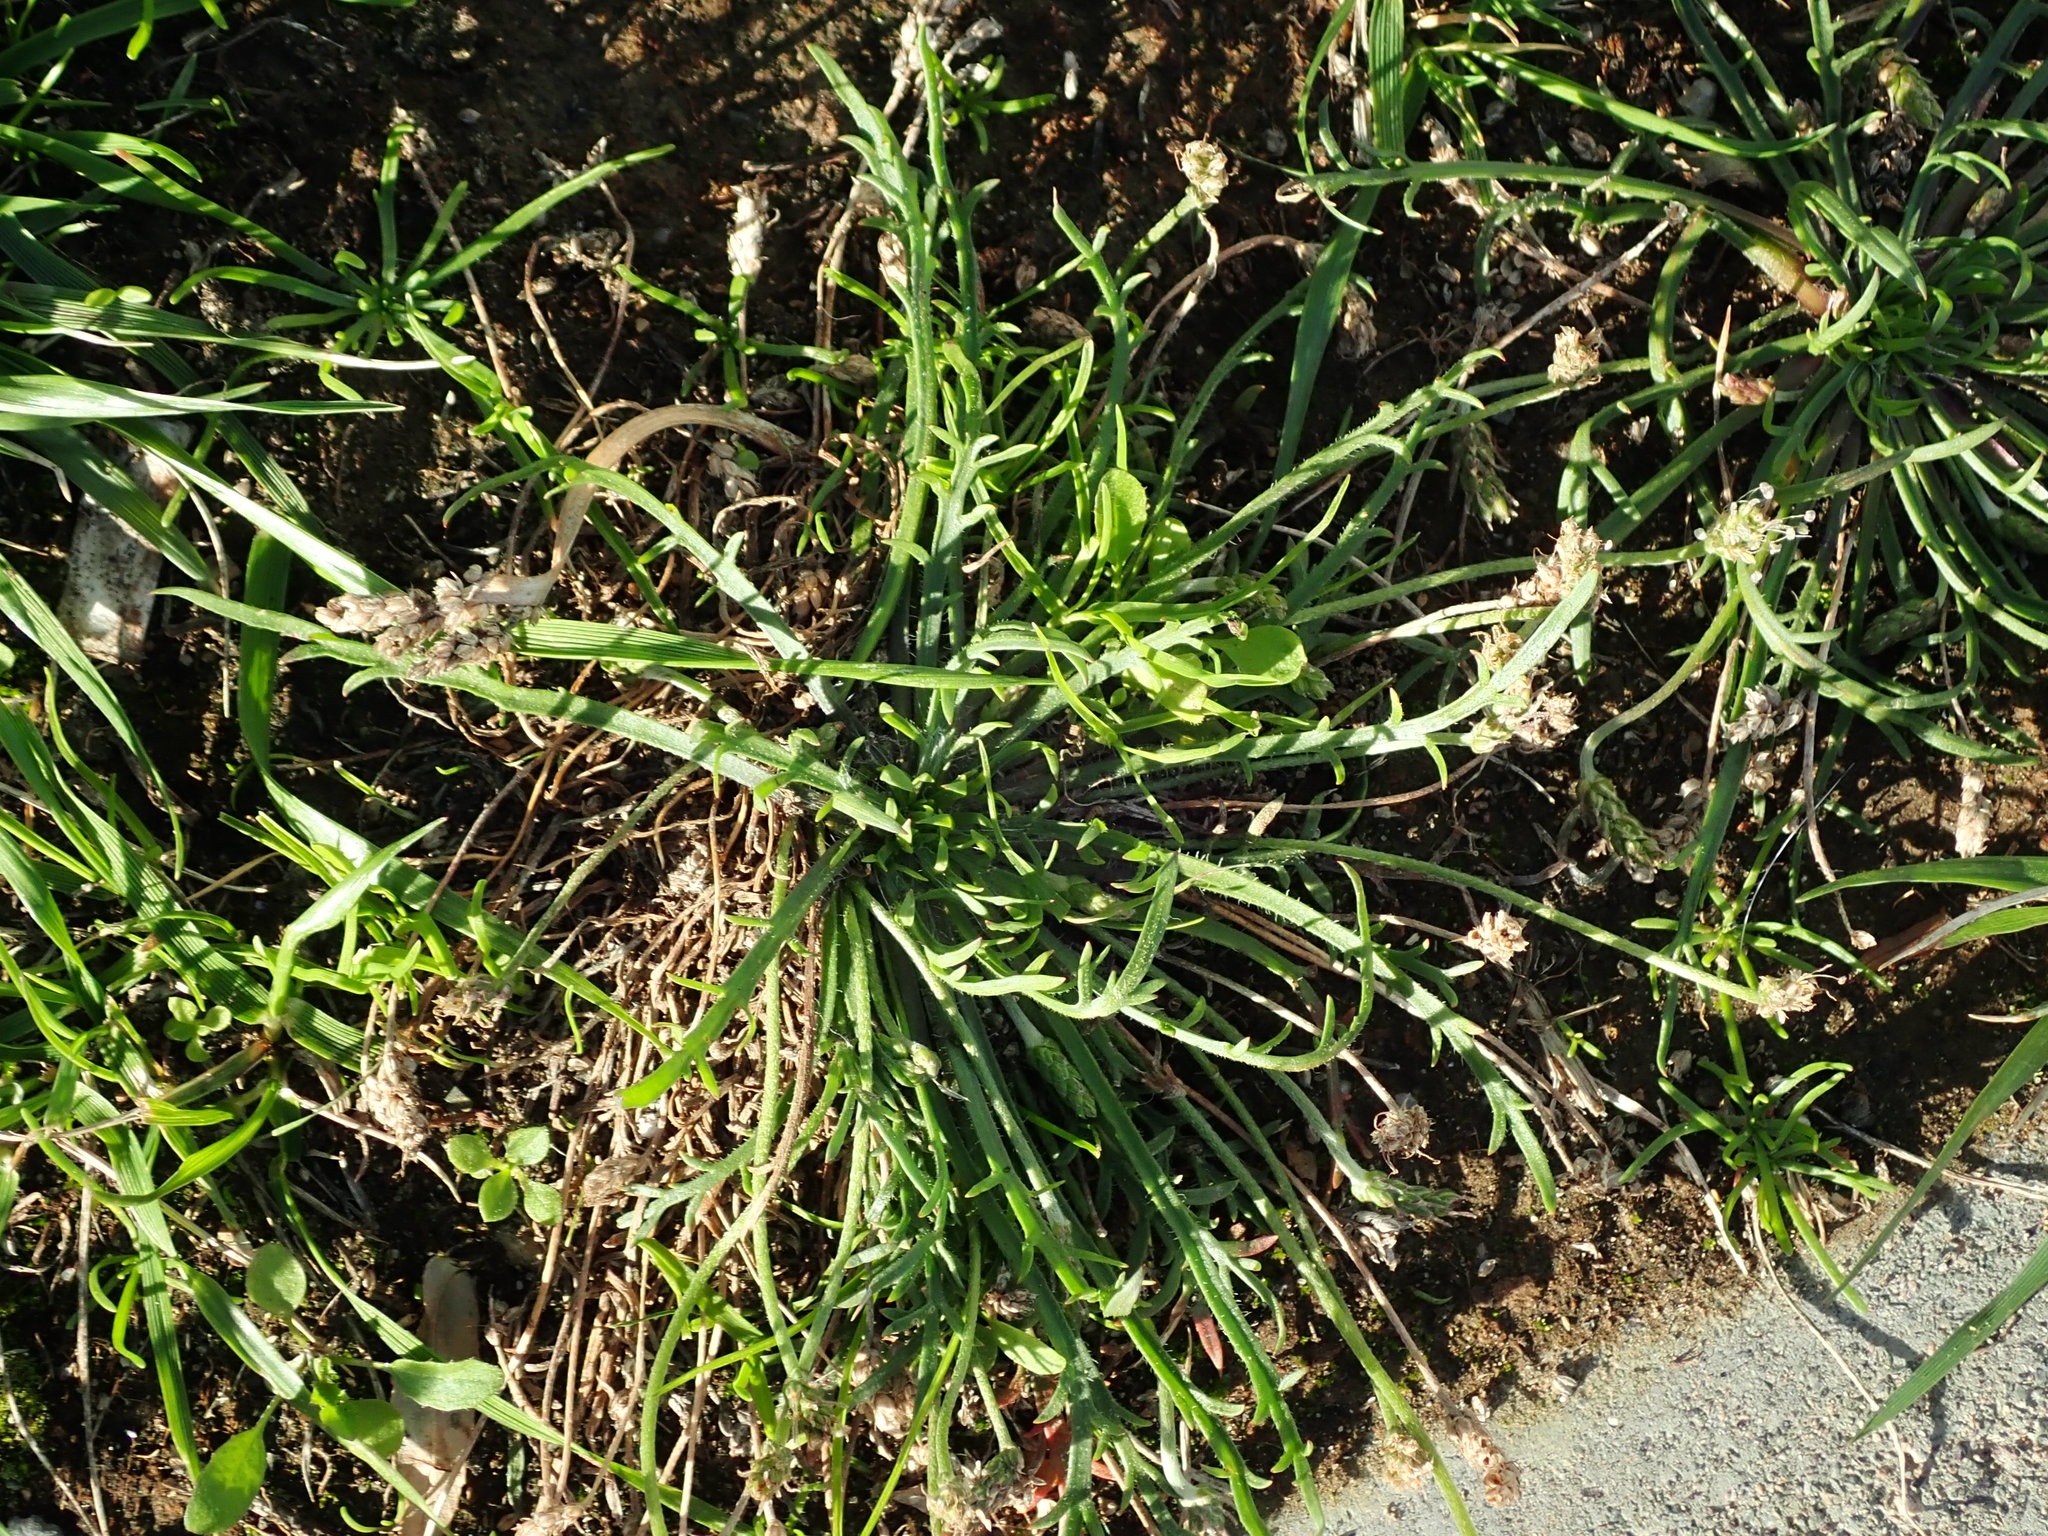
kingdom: Plantae
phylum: Tracheophyta
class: Magnoliopsida
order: Lamiales
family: Plantaginaceae
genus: Plantago
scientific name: Plantago coronopus
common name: Buck's-horn plantain
